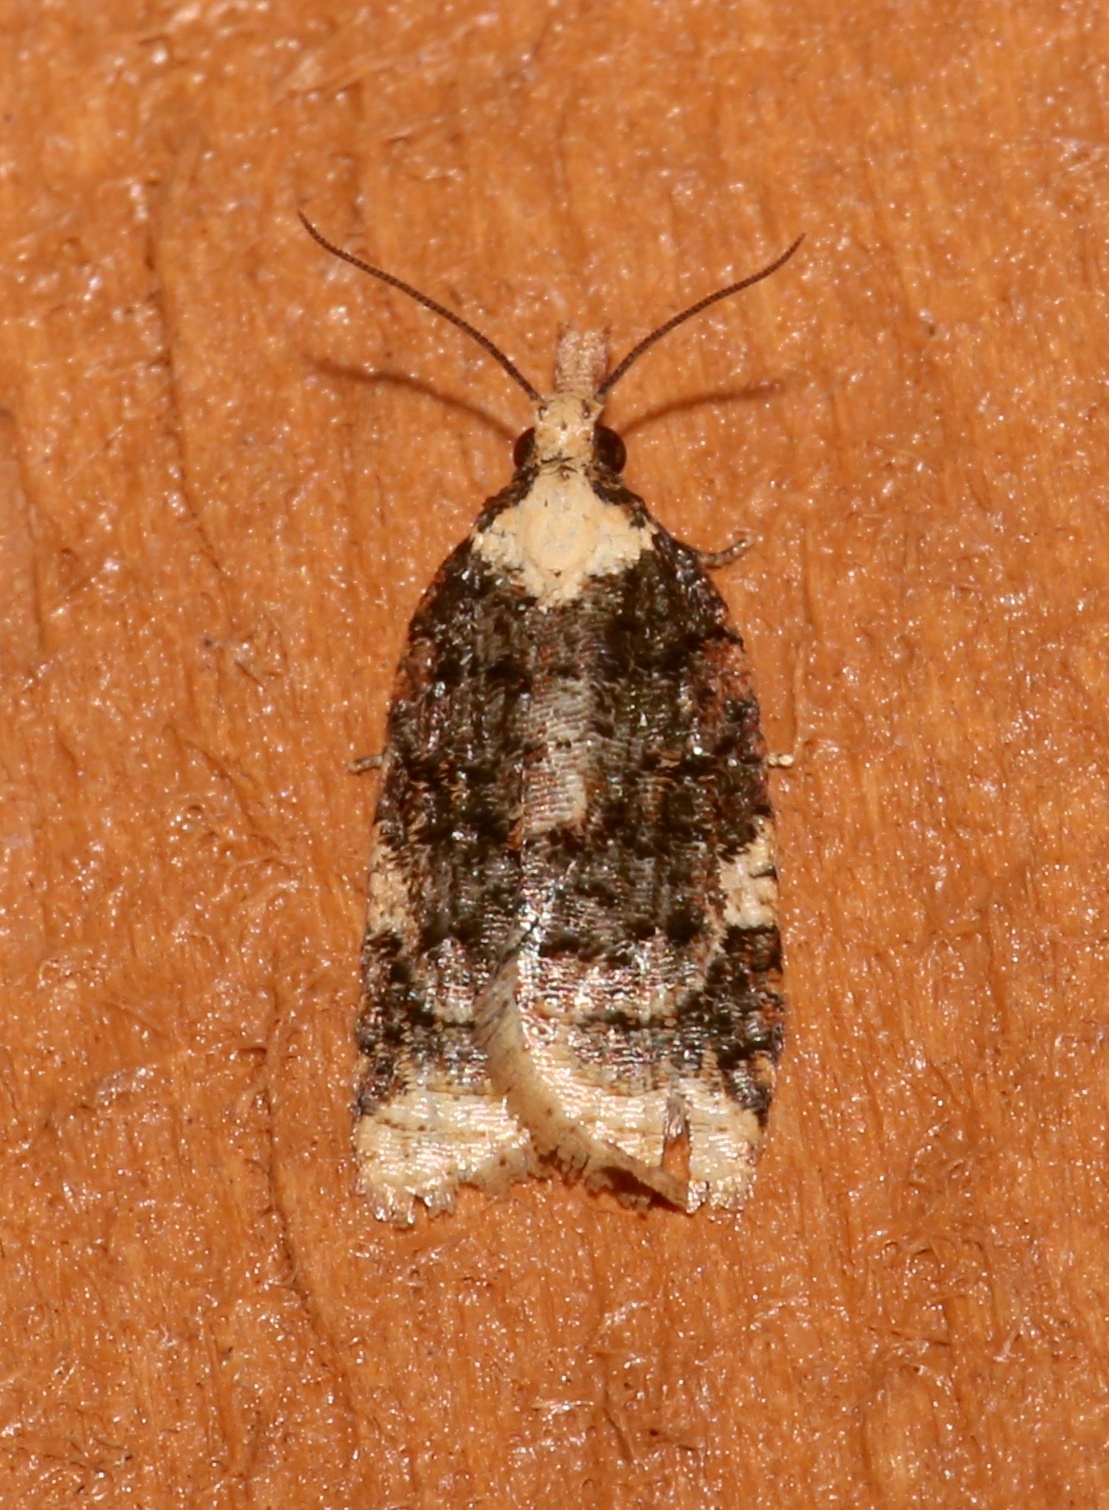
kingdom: Animalia
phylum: Arthropoda
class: Insecta
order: Lepidoptera
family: Tortricidae
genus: Platynota
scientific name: Platynota exasperatana
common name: Exasperating platynota moth
